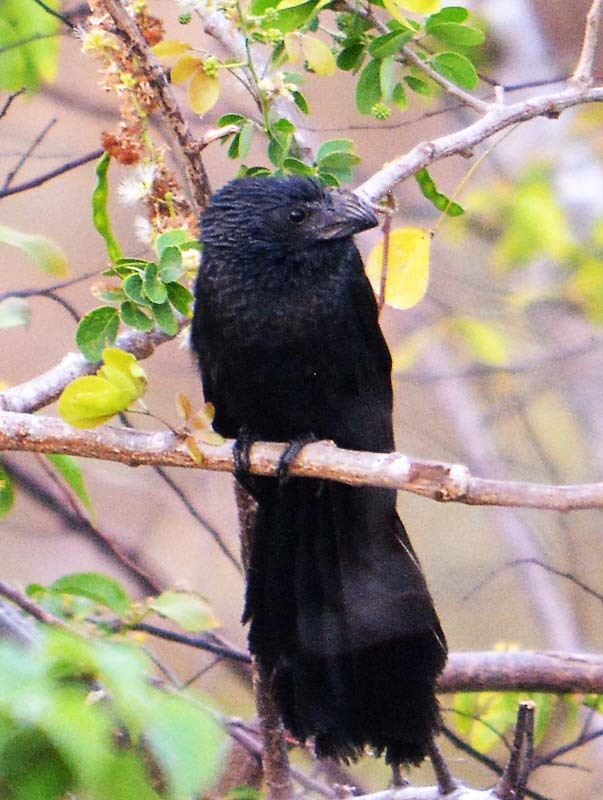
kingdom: Animalia
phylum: Chordata
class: Aves
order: Cuculiformes
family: Cuculidae
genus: Crotophaga
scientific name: Crotophaga sulcirostris
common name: Groove-billed ani
